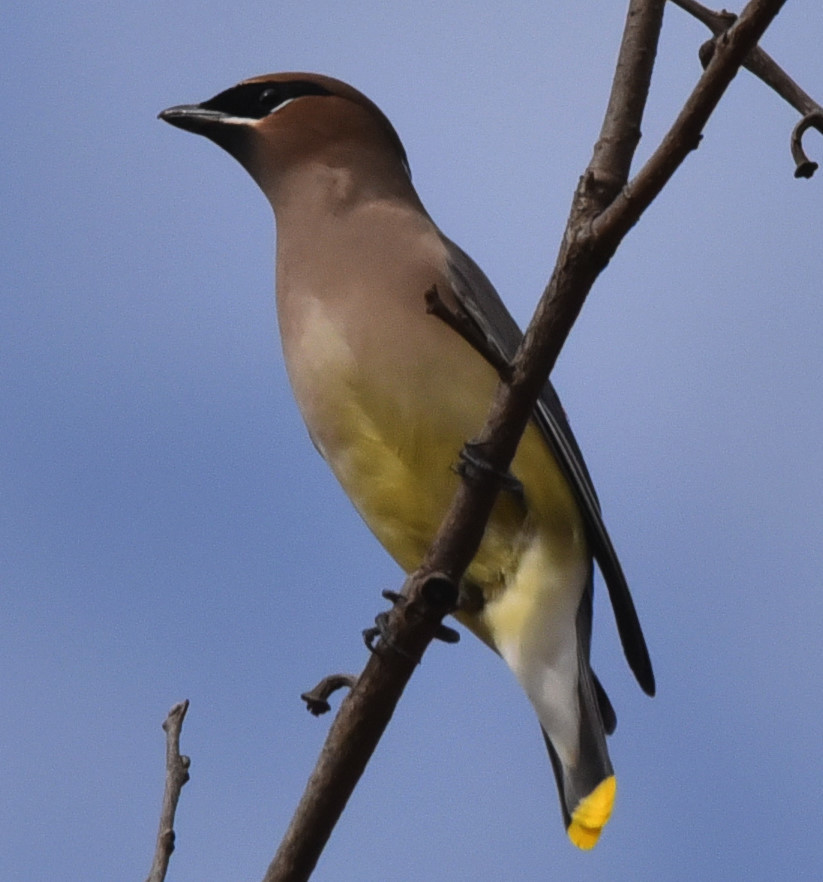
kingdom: Animalia
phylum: Chordata
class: Aves
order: Passeriformes
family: Bombycillidae
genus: Bombycilla
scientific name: Bombycilla cedrorum
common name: Cedar waxwing
